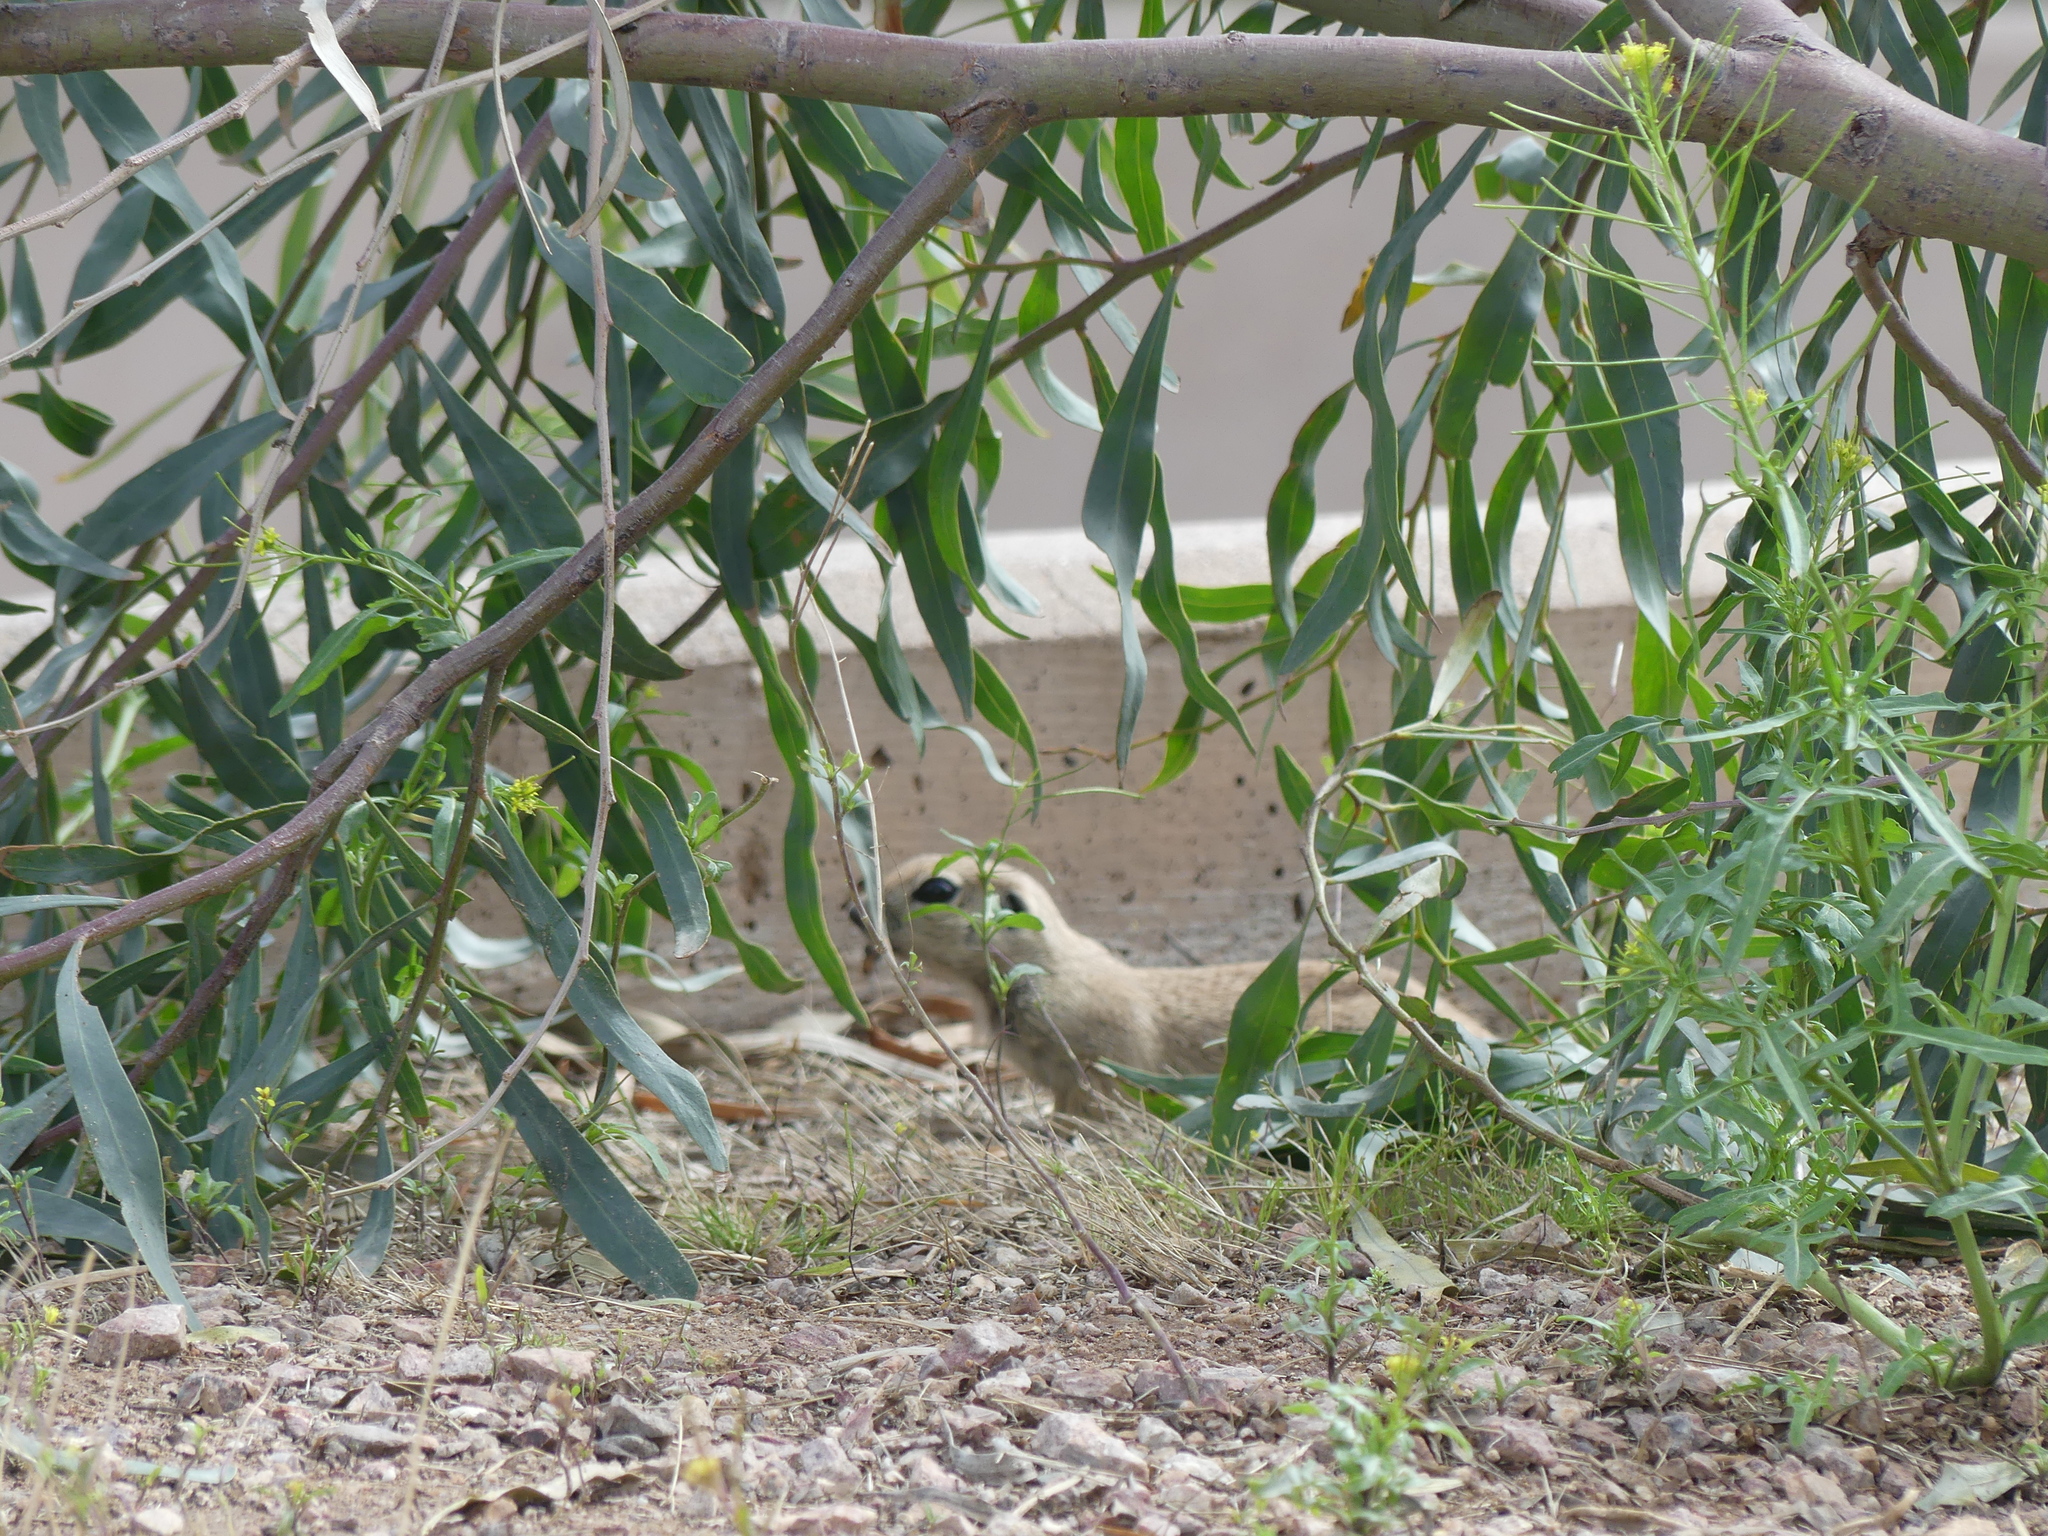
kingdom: Animalia
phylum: Chordata
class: Mammalia
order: Rodentia
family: Sciuridae
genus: Xerospermophilus
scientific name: Xerospermophilus tereticaudus
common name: Round-tailed ground squirrel
